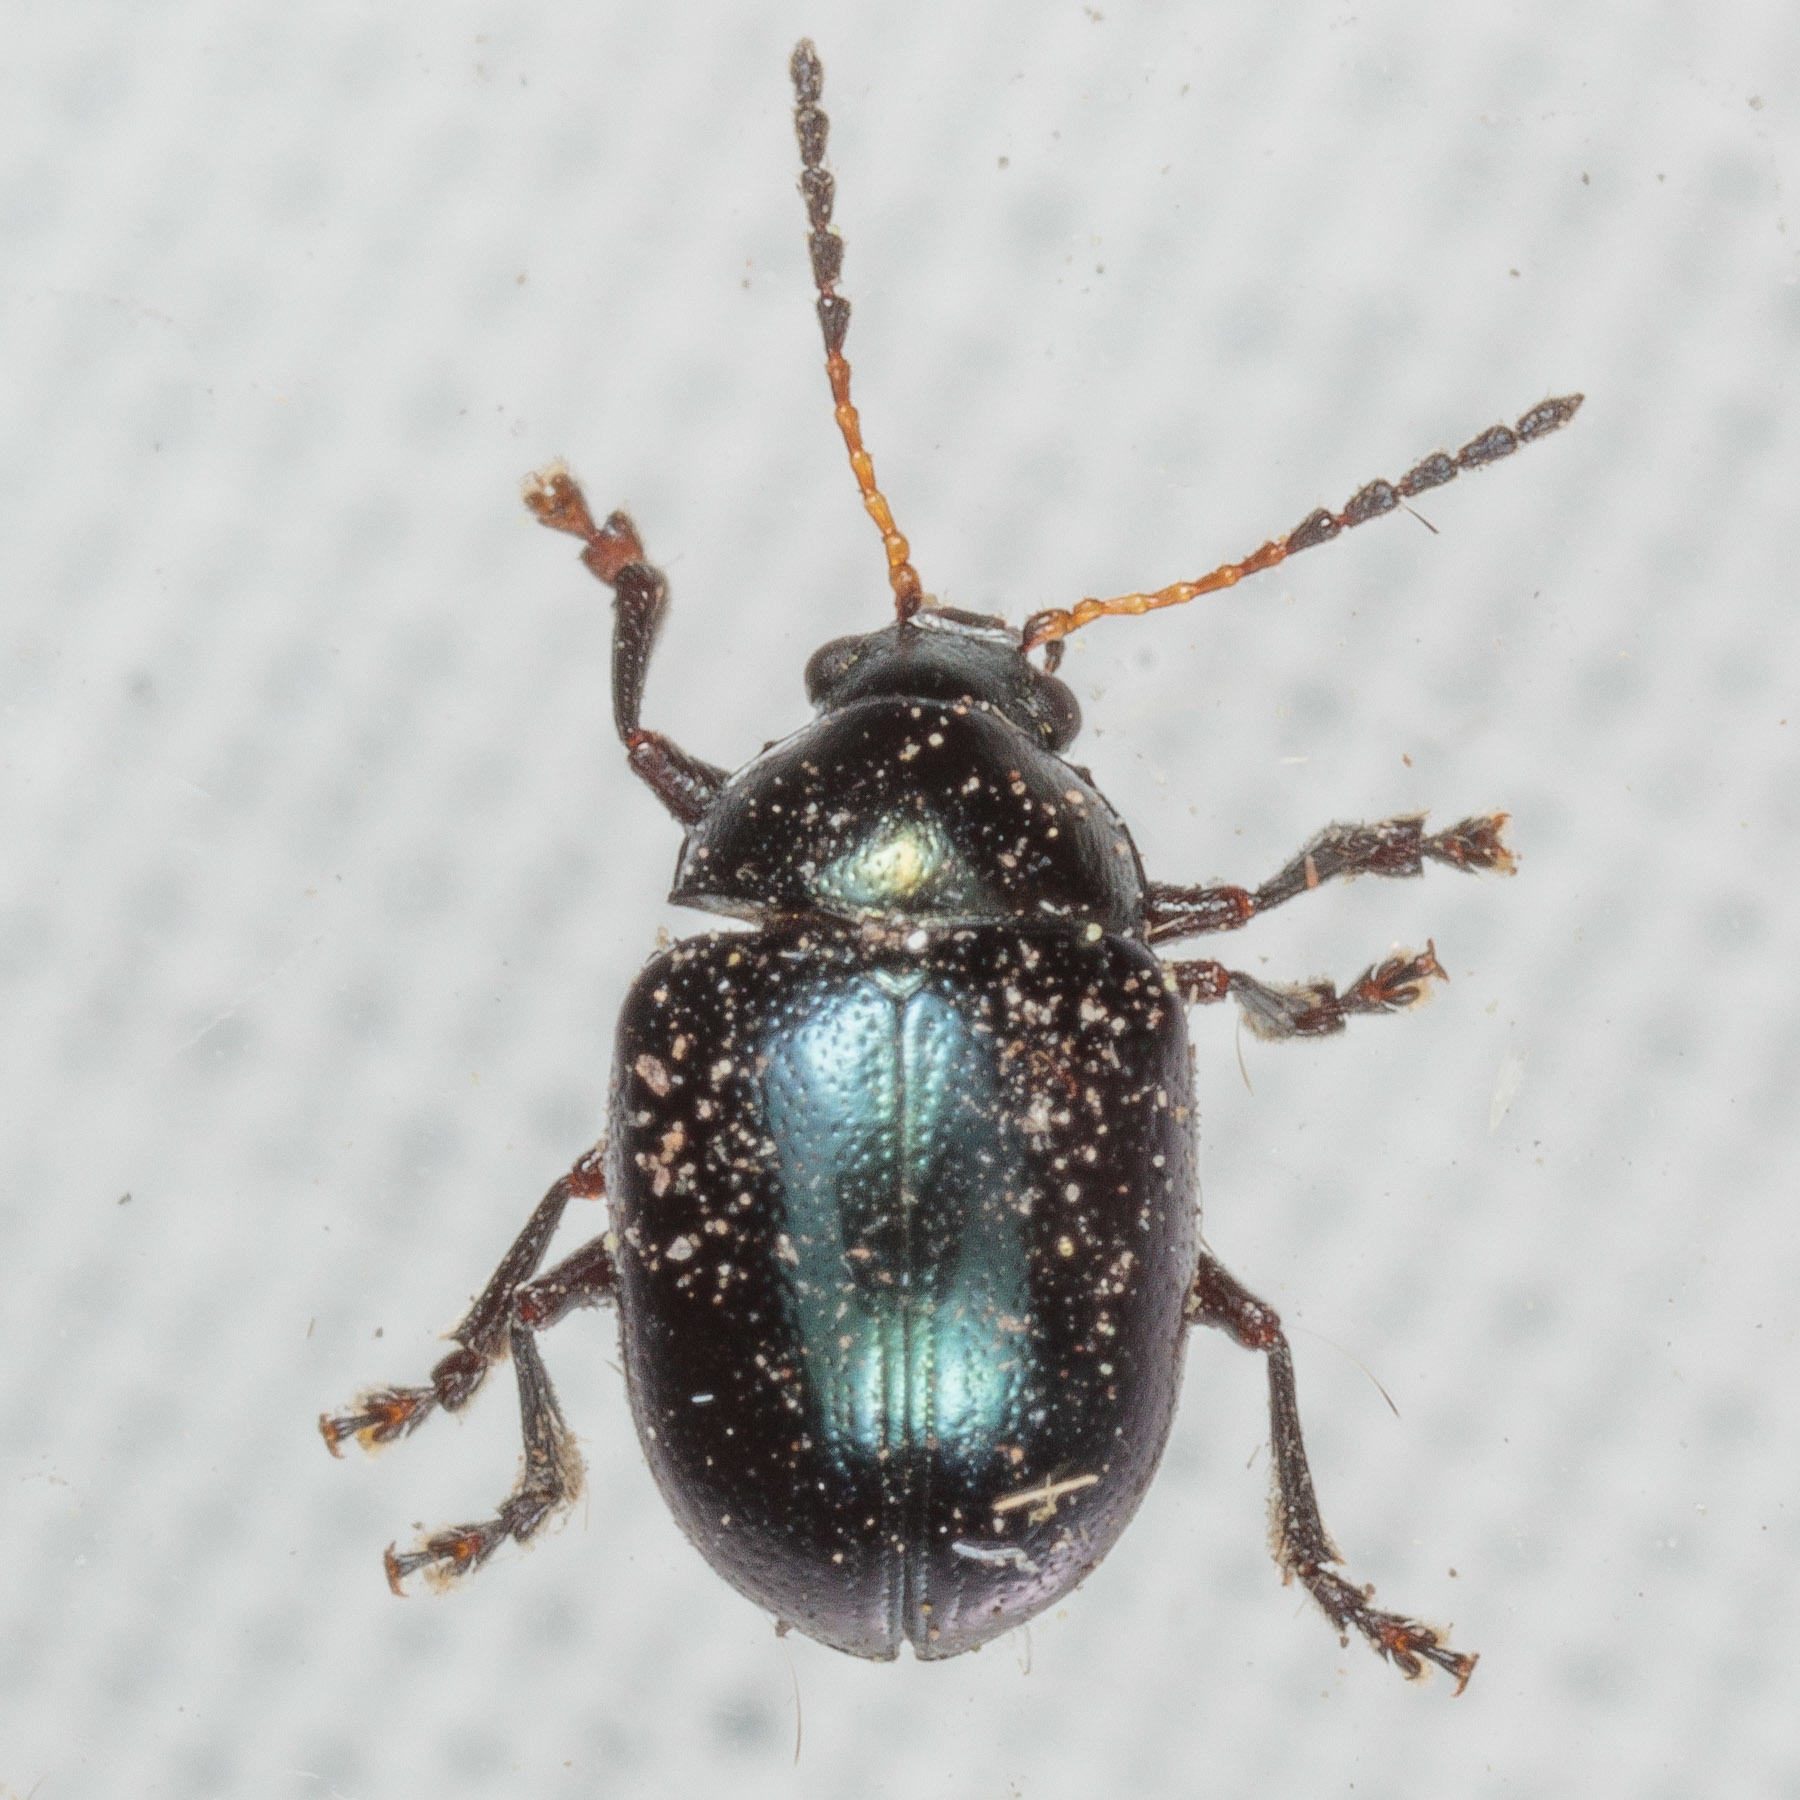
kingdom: Animalia
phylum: Arthropoda
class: Insecta
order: Coleoptera
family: Chrysomelidae
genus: Brachypnoea
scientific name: Brachypnoea lecontei
